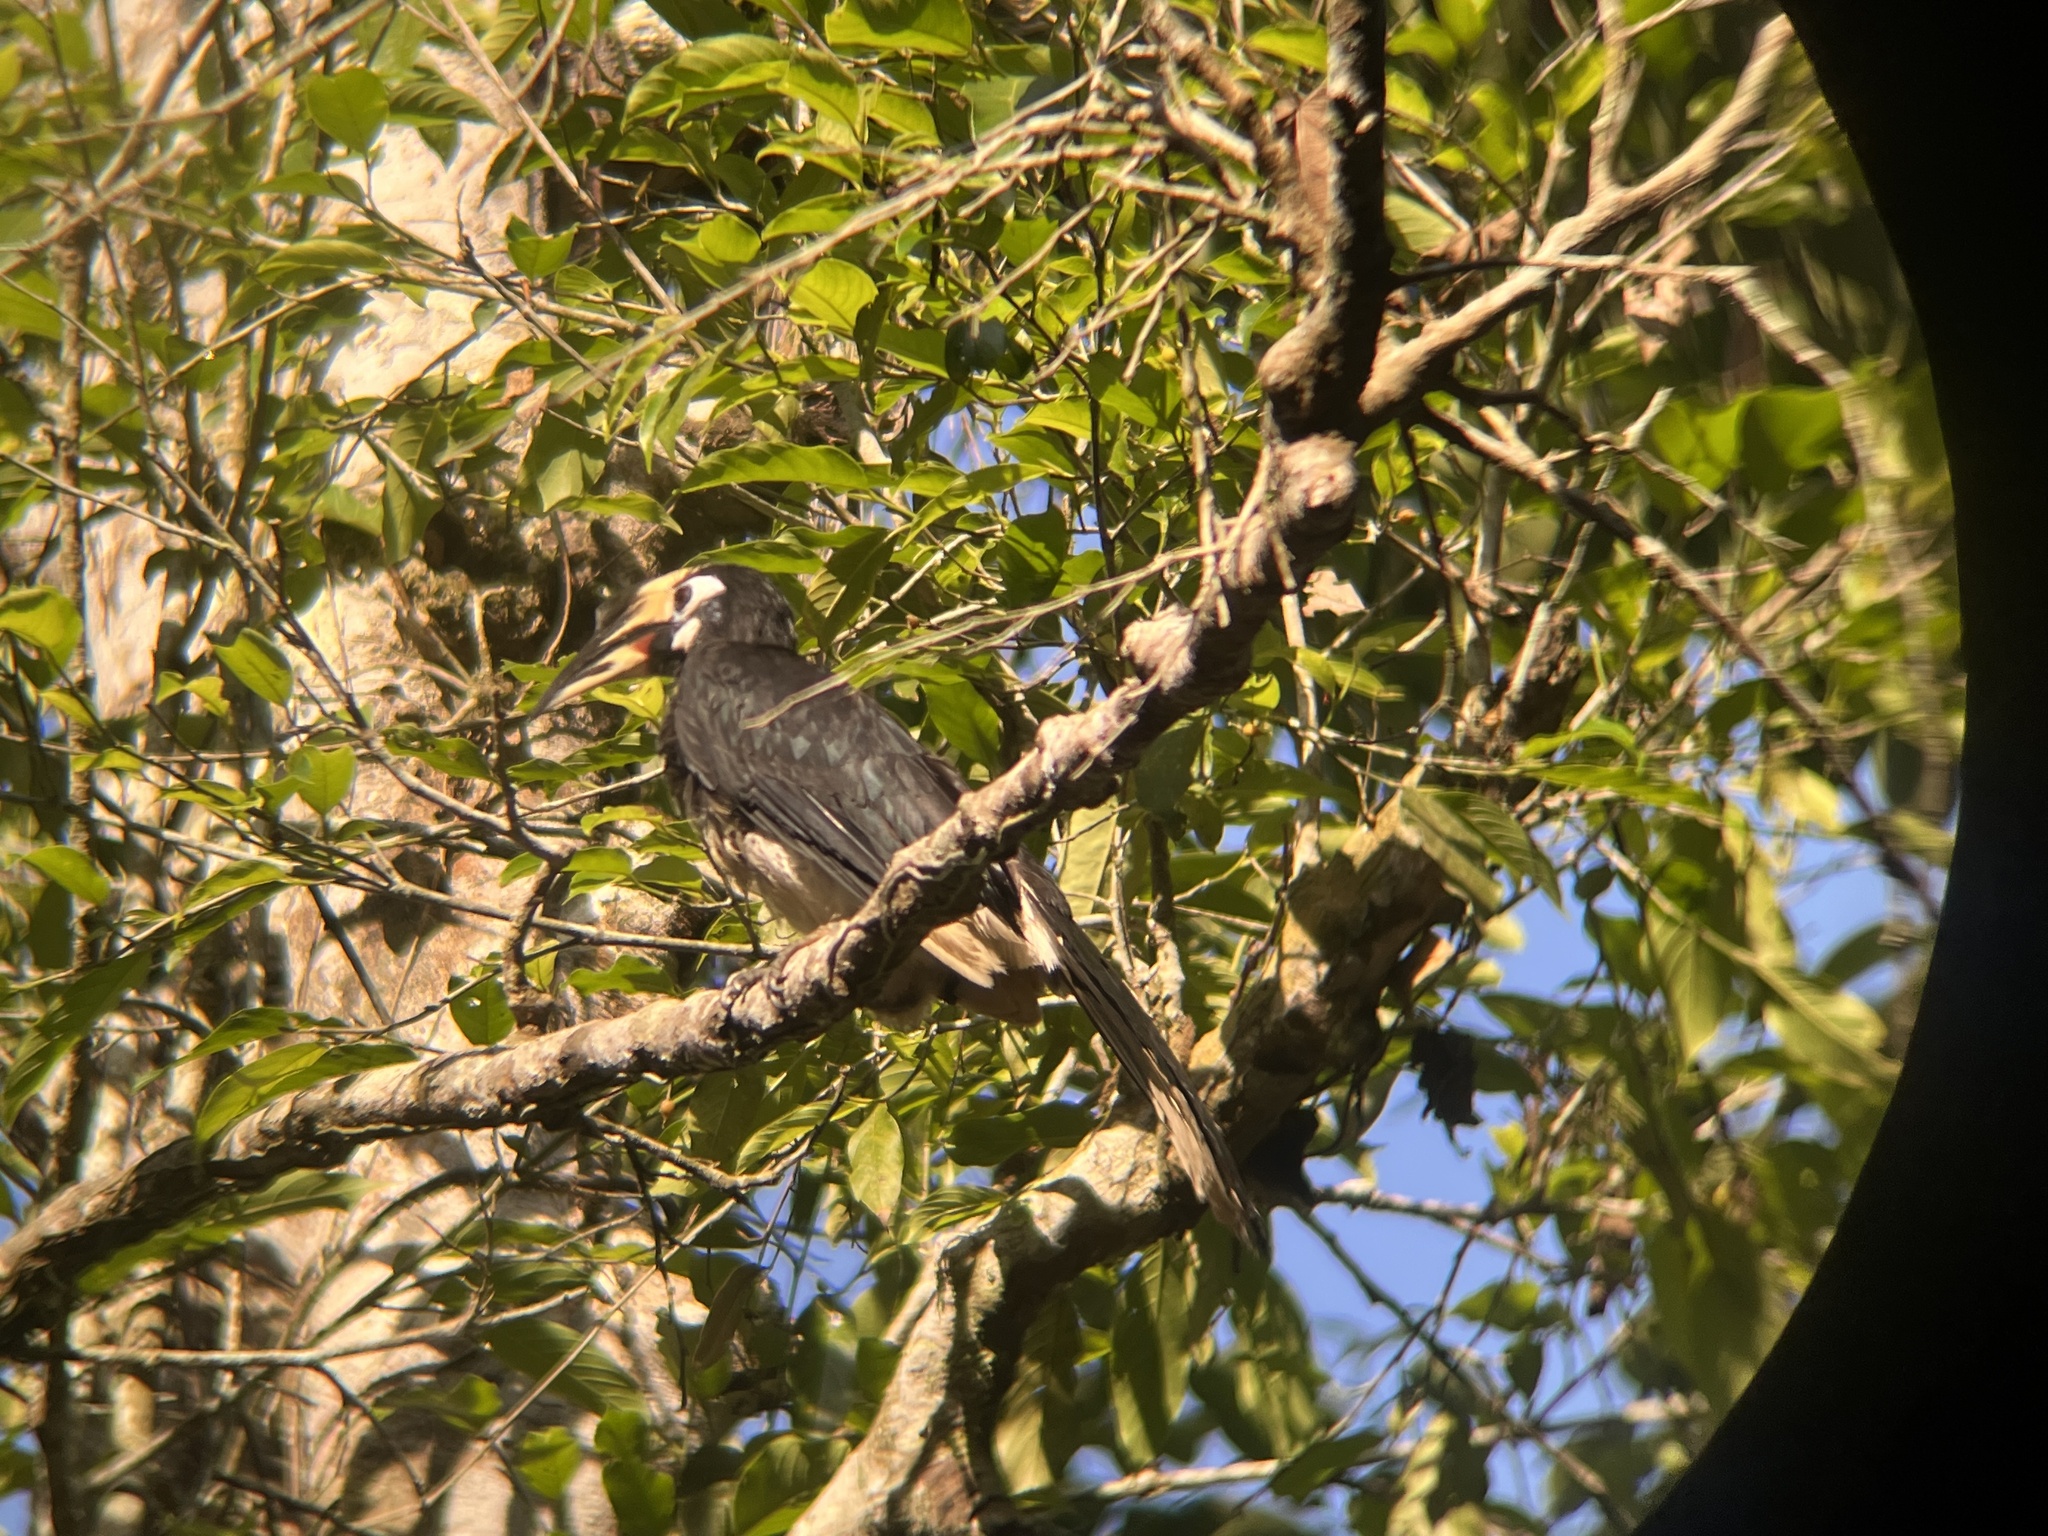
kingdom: Animalia
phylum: Chordata
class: Aves
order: Bucerotiformes
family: Bucerotidae
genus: Anthracoceros
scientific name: Anthracoceros albirostris
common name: Oriental pied-hornbill
